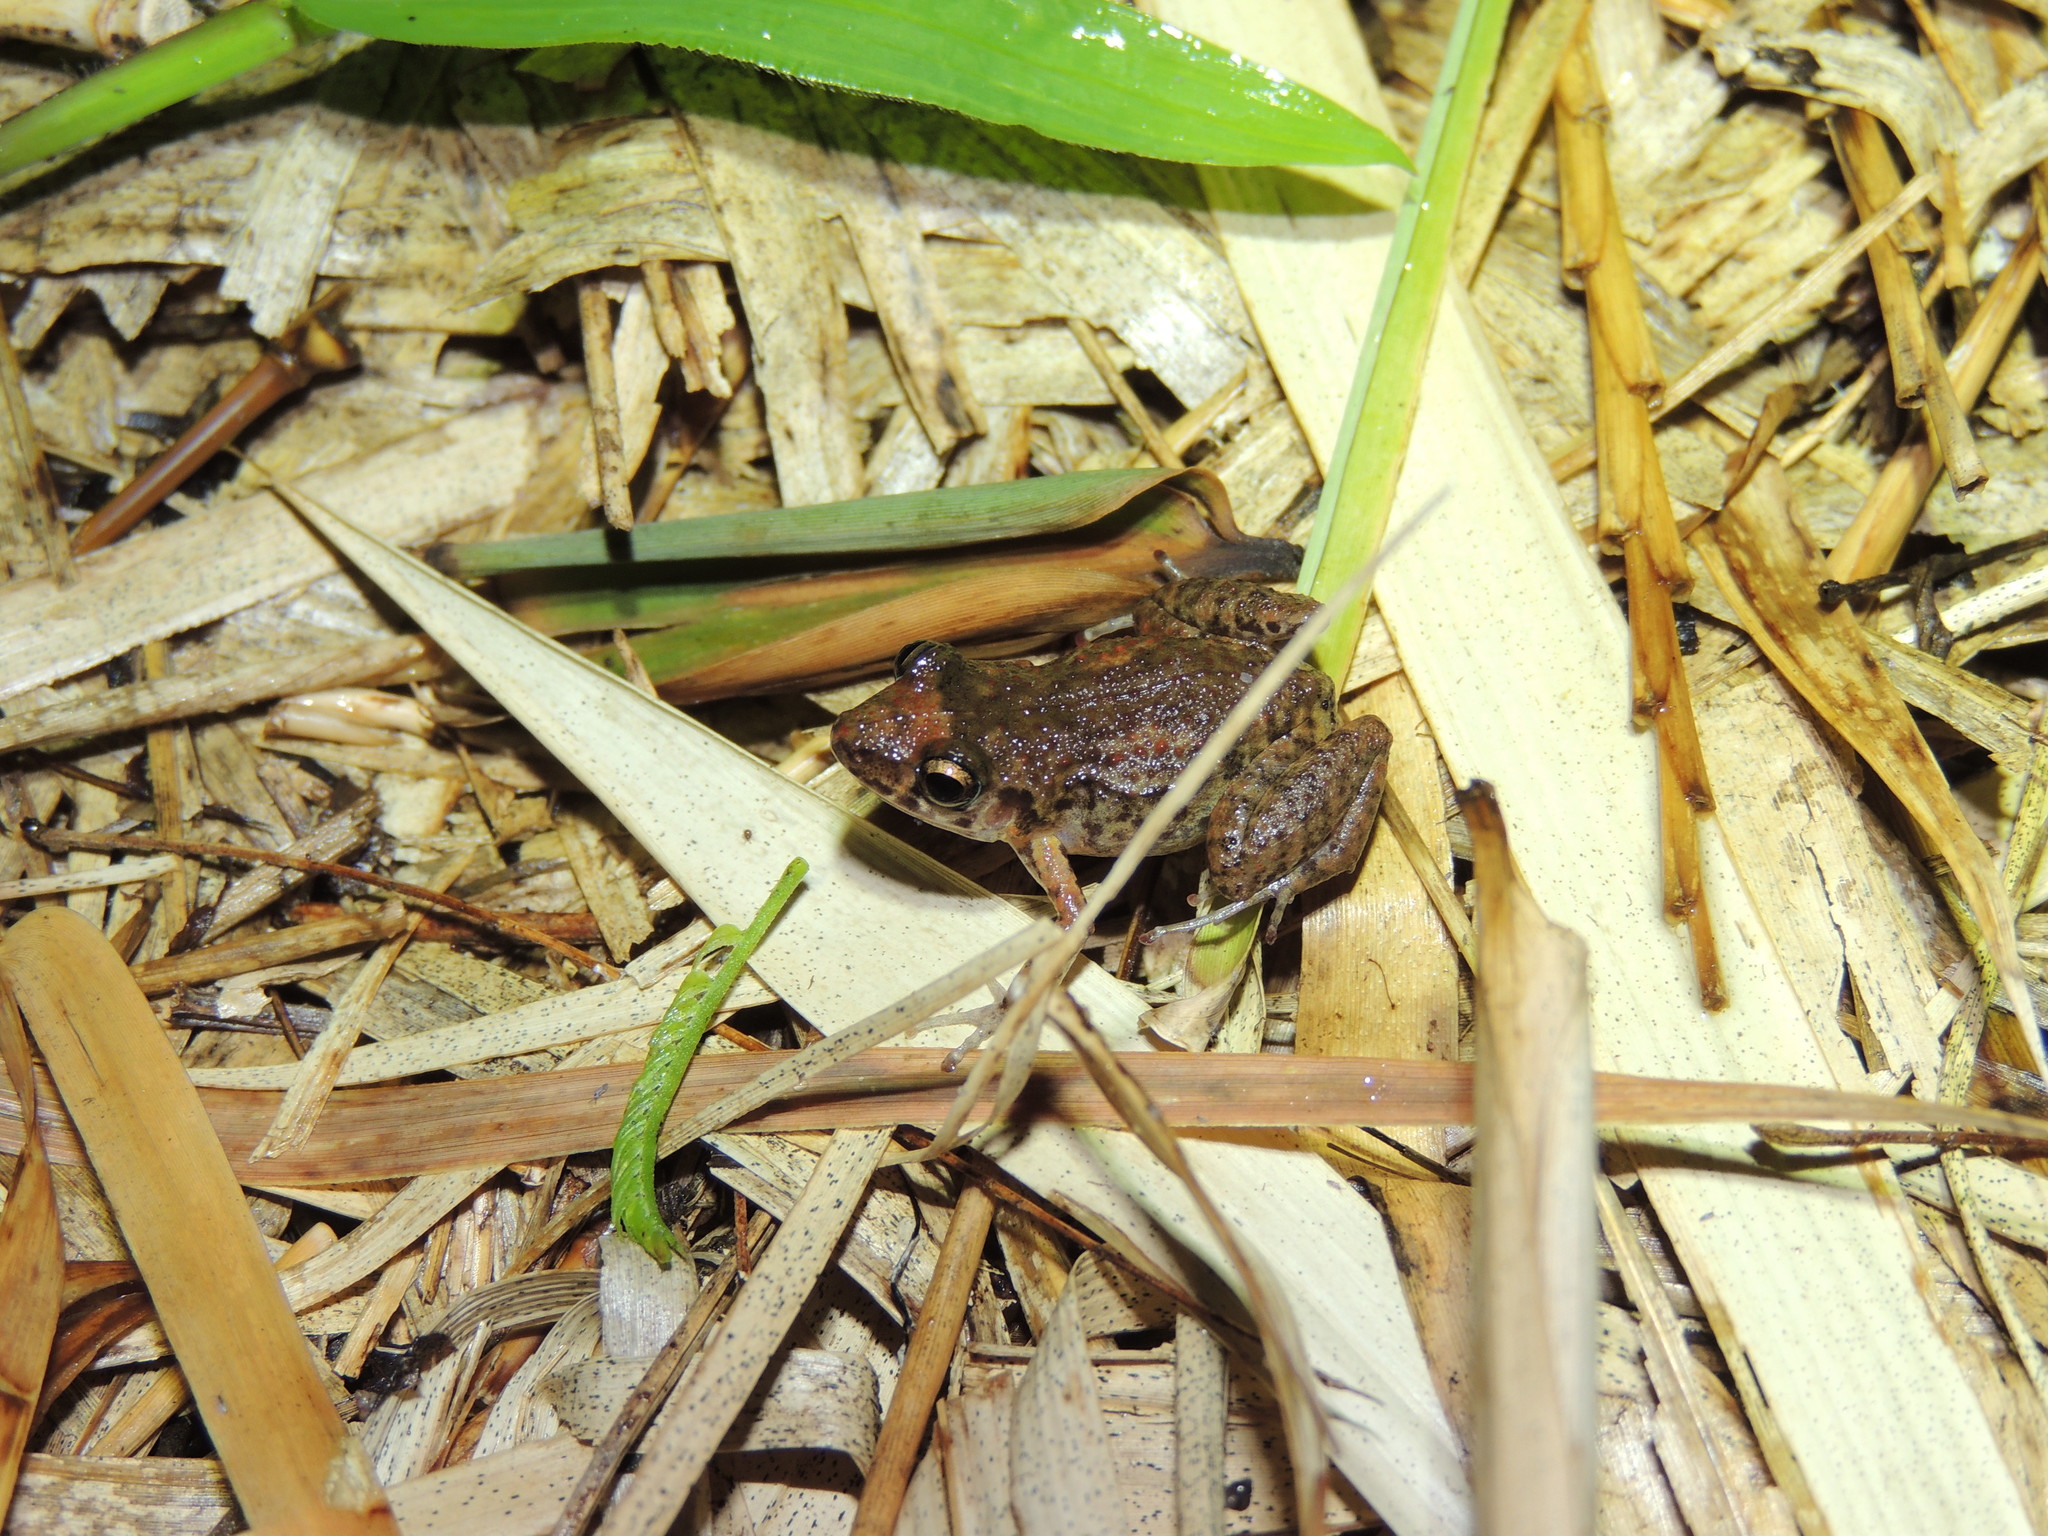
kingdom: Animalia
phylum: Chordata
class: Amphibia
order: Anura
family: Eleutherodactylidae
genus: Eleutherodactylus
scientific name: Eleutherodactylus planirostris
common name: Greenhouse frog
